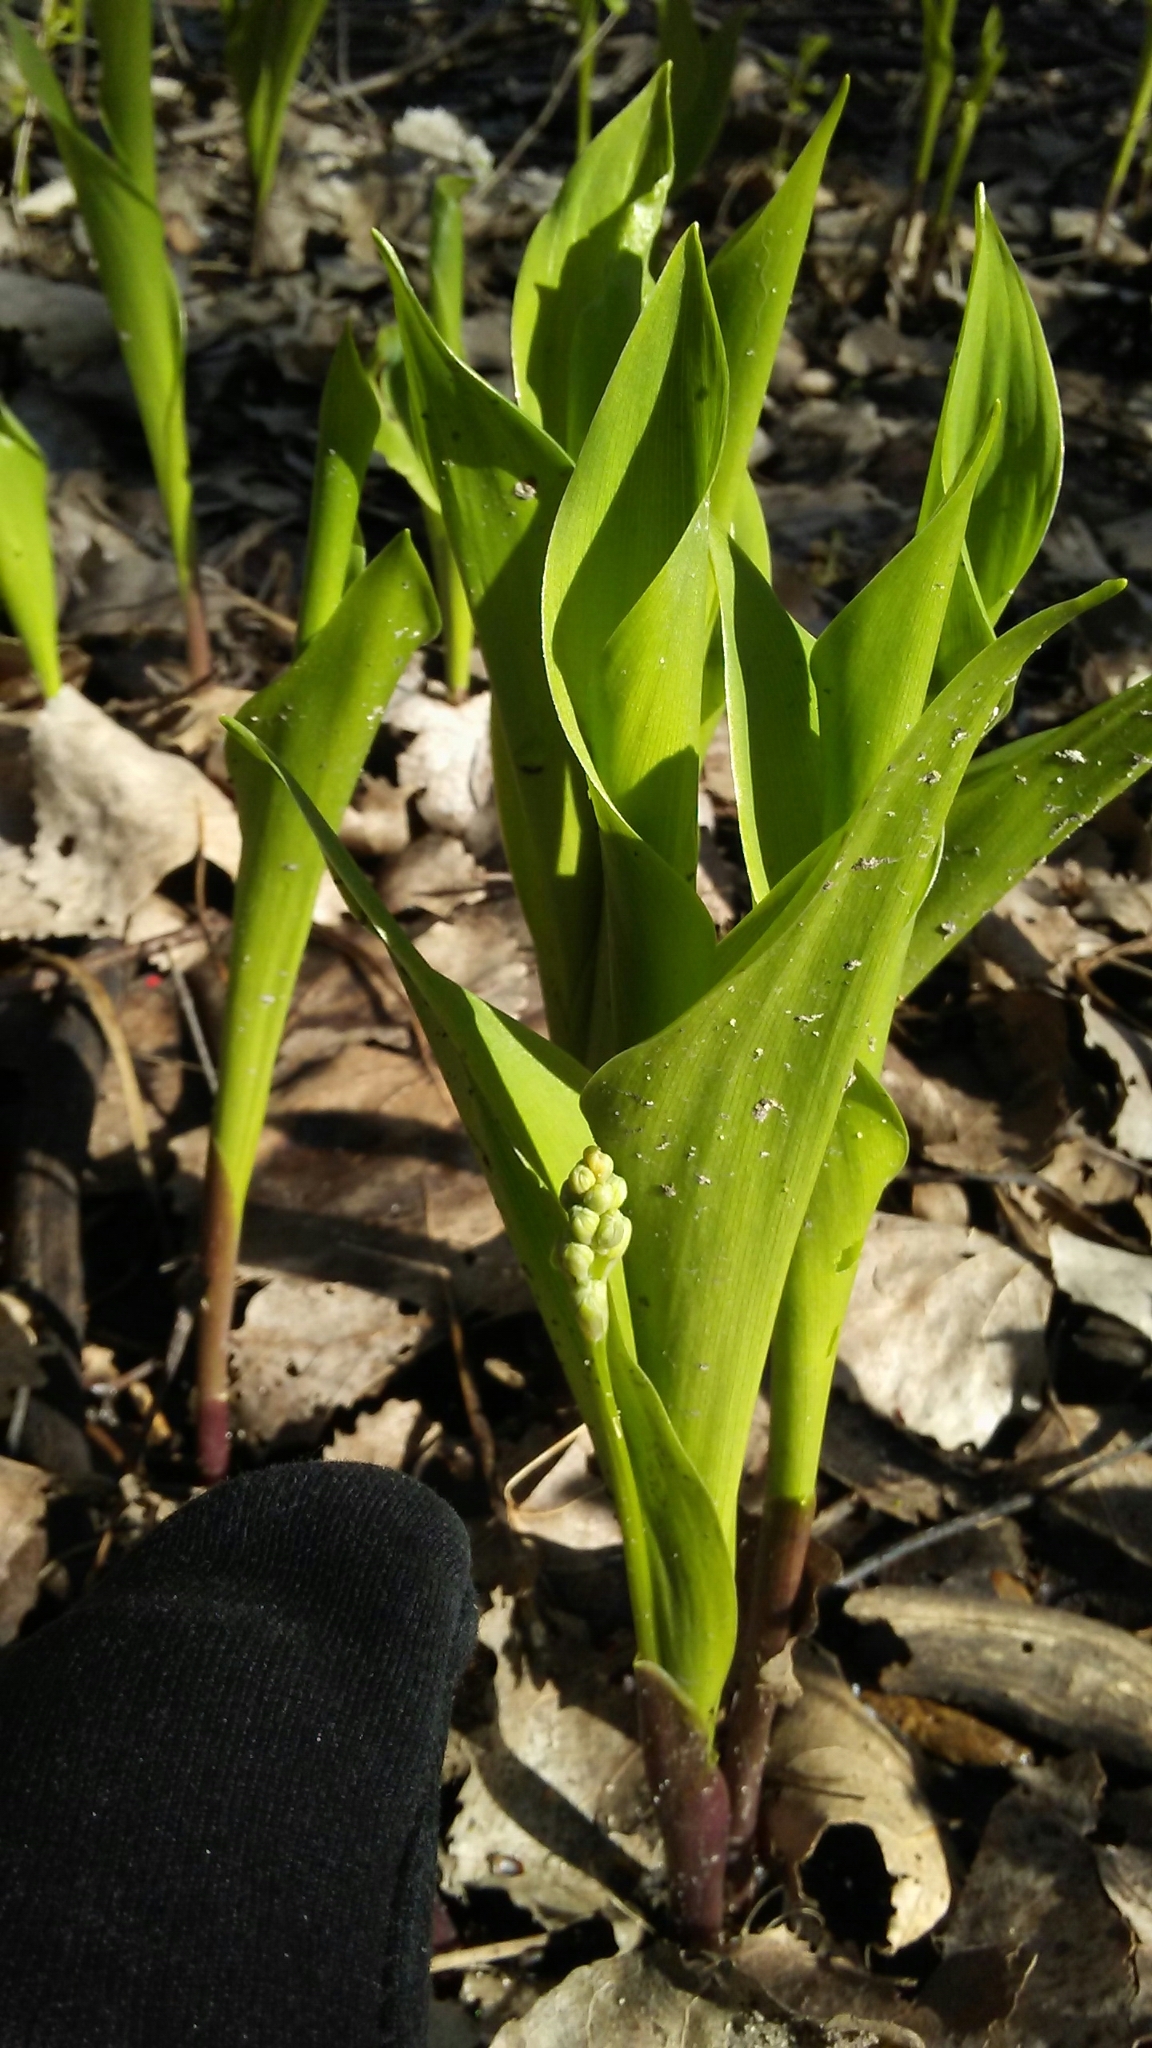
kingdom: Plantae
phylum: Tracheophyta
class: Liliopsida
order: Asparagales
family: Asparagaceae
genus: Convallaria
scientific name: Convallaria majalis
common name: Lily-of-the-valley
